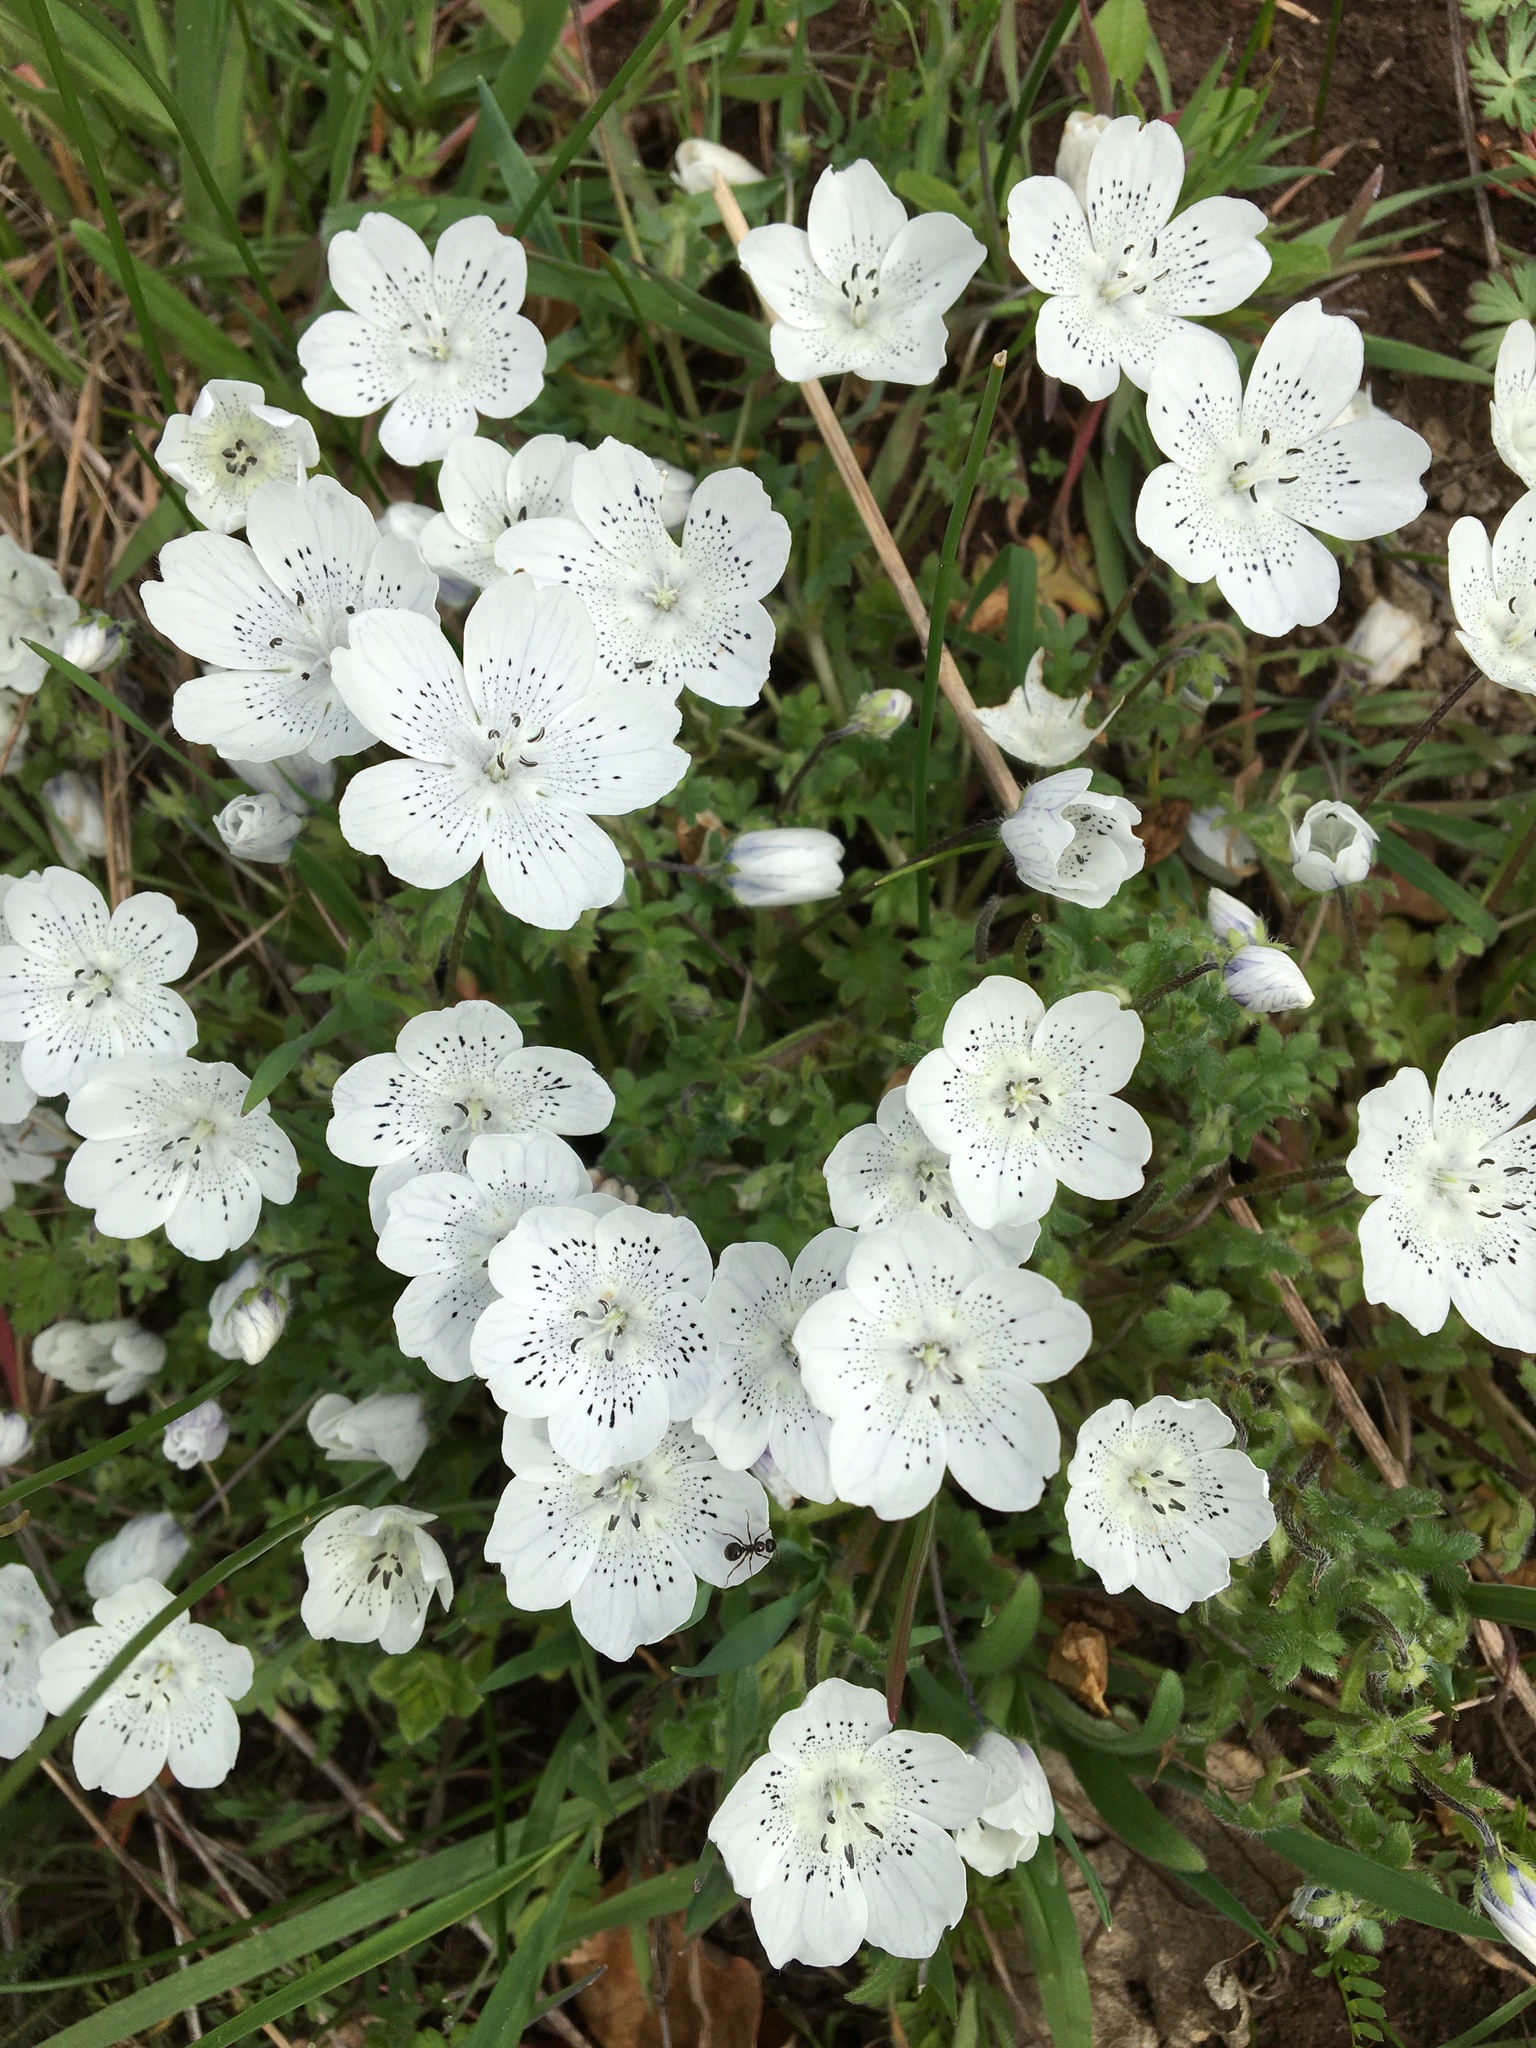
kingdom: Plantae
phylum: Tracheophyta
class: Magnoliopsida
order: Boraginales
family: Hydrophyllaceae
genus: Nemophila
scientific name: Nemophila menziesii
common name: Baby's-blue-eyes
